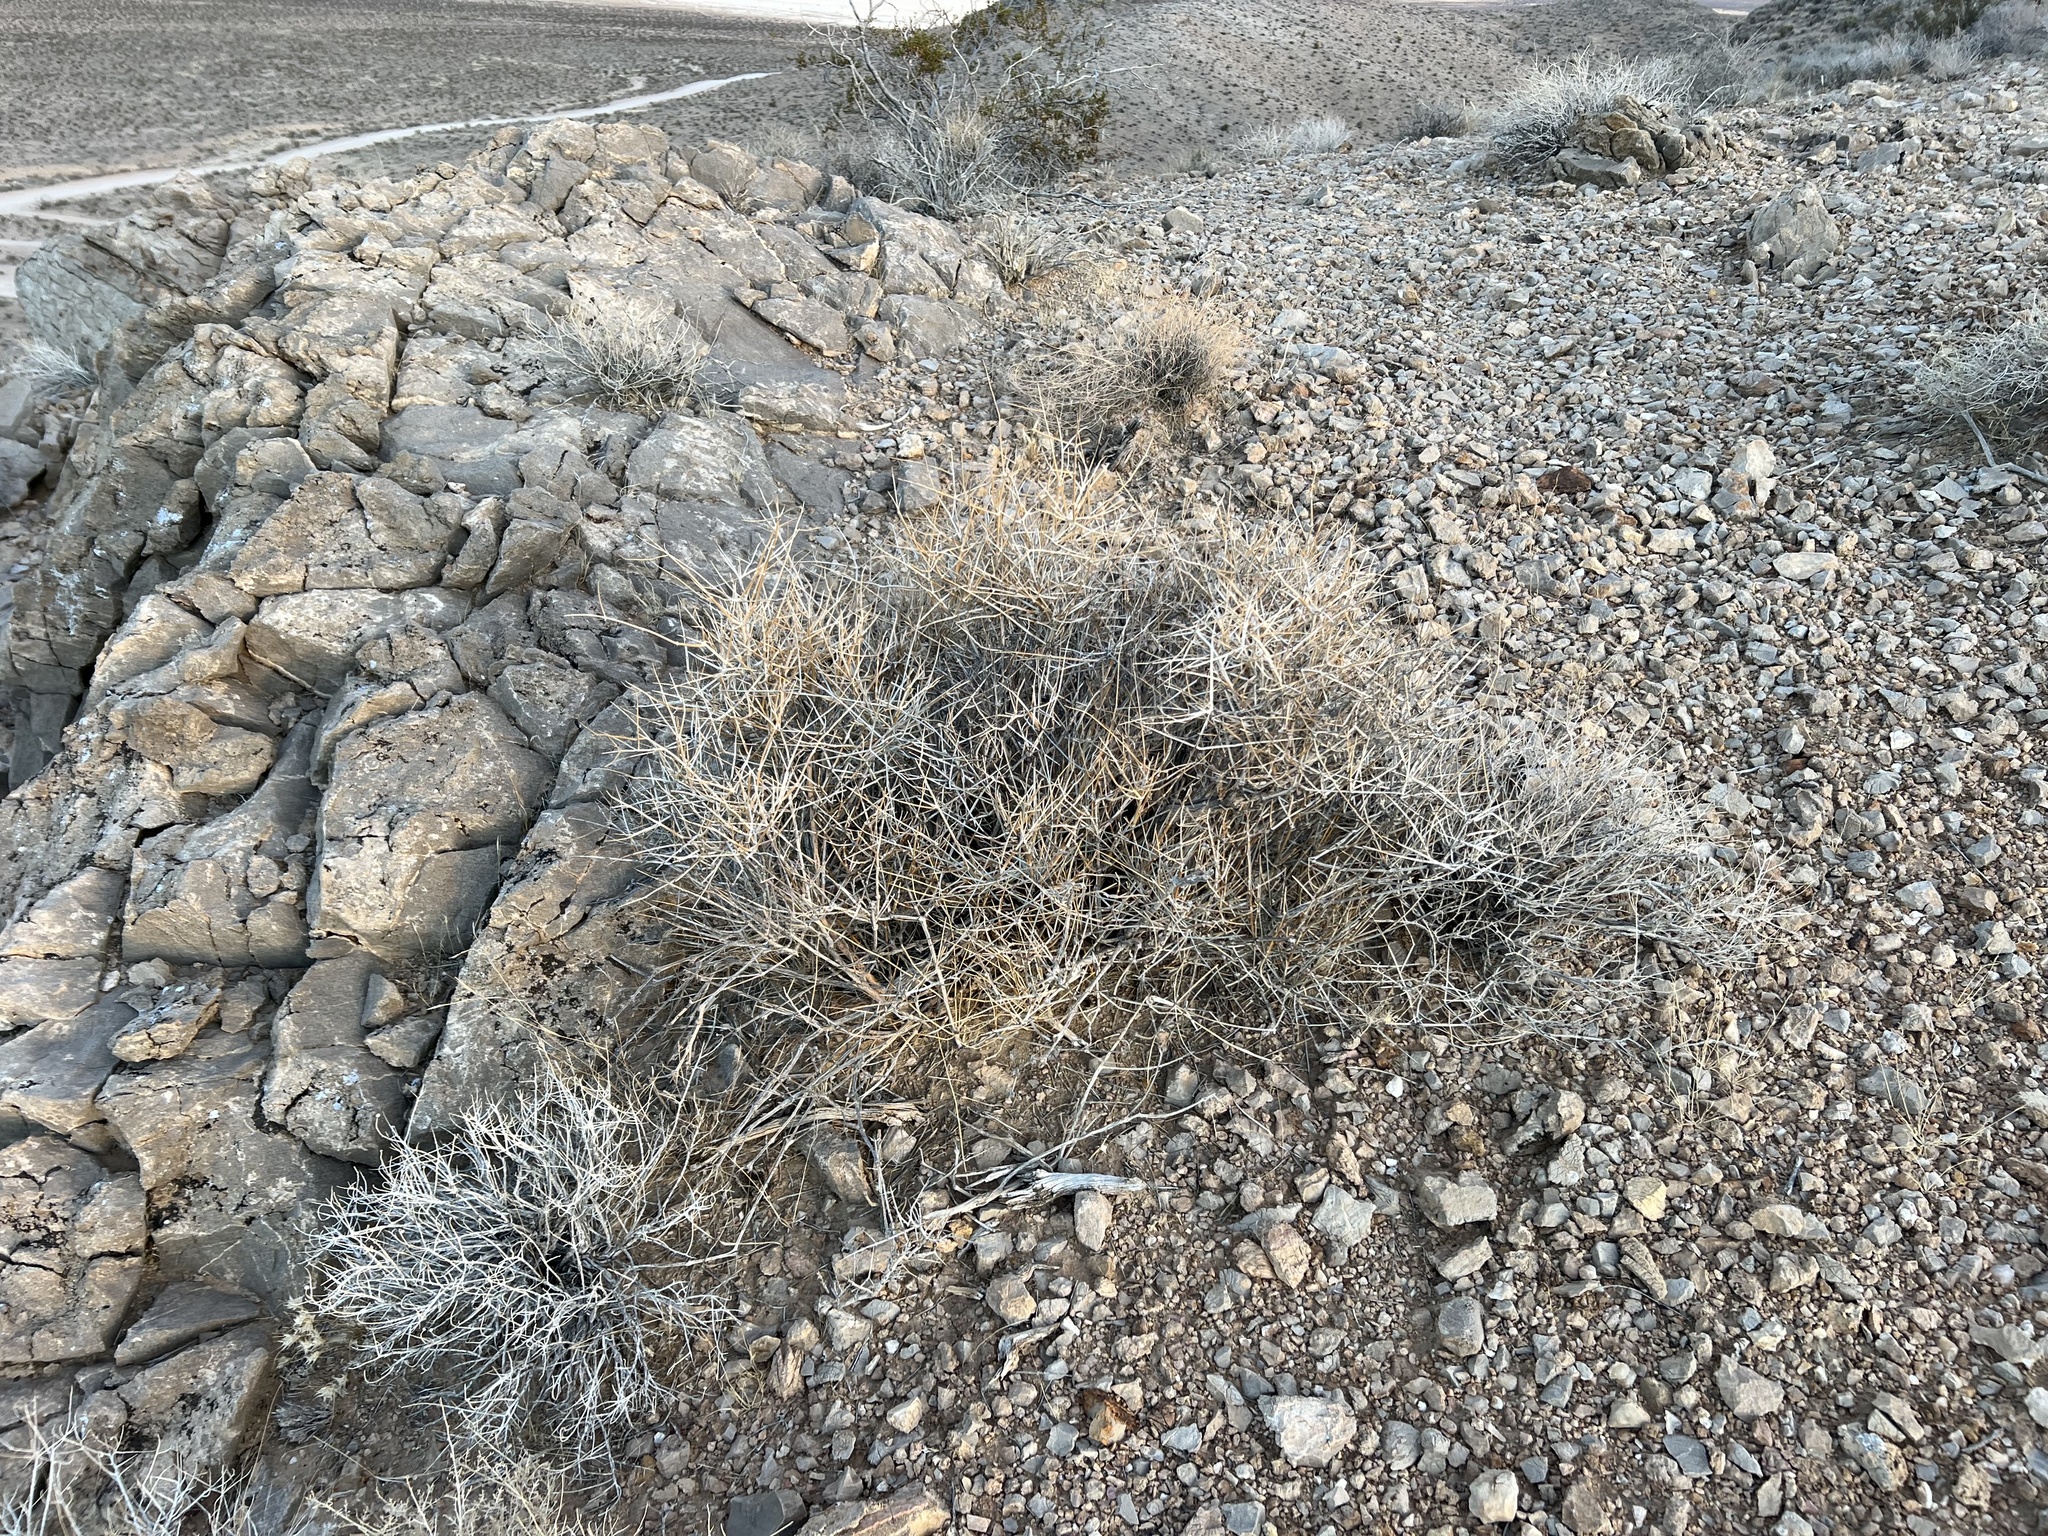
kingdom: Plantae
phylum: Tracheophyta
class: Gnetopsida
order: Ephedrales
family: Ephedraceae
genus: Ephedra
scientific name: Ephedra nevadensis
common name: Gray ephedra
